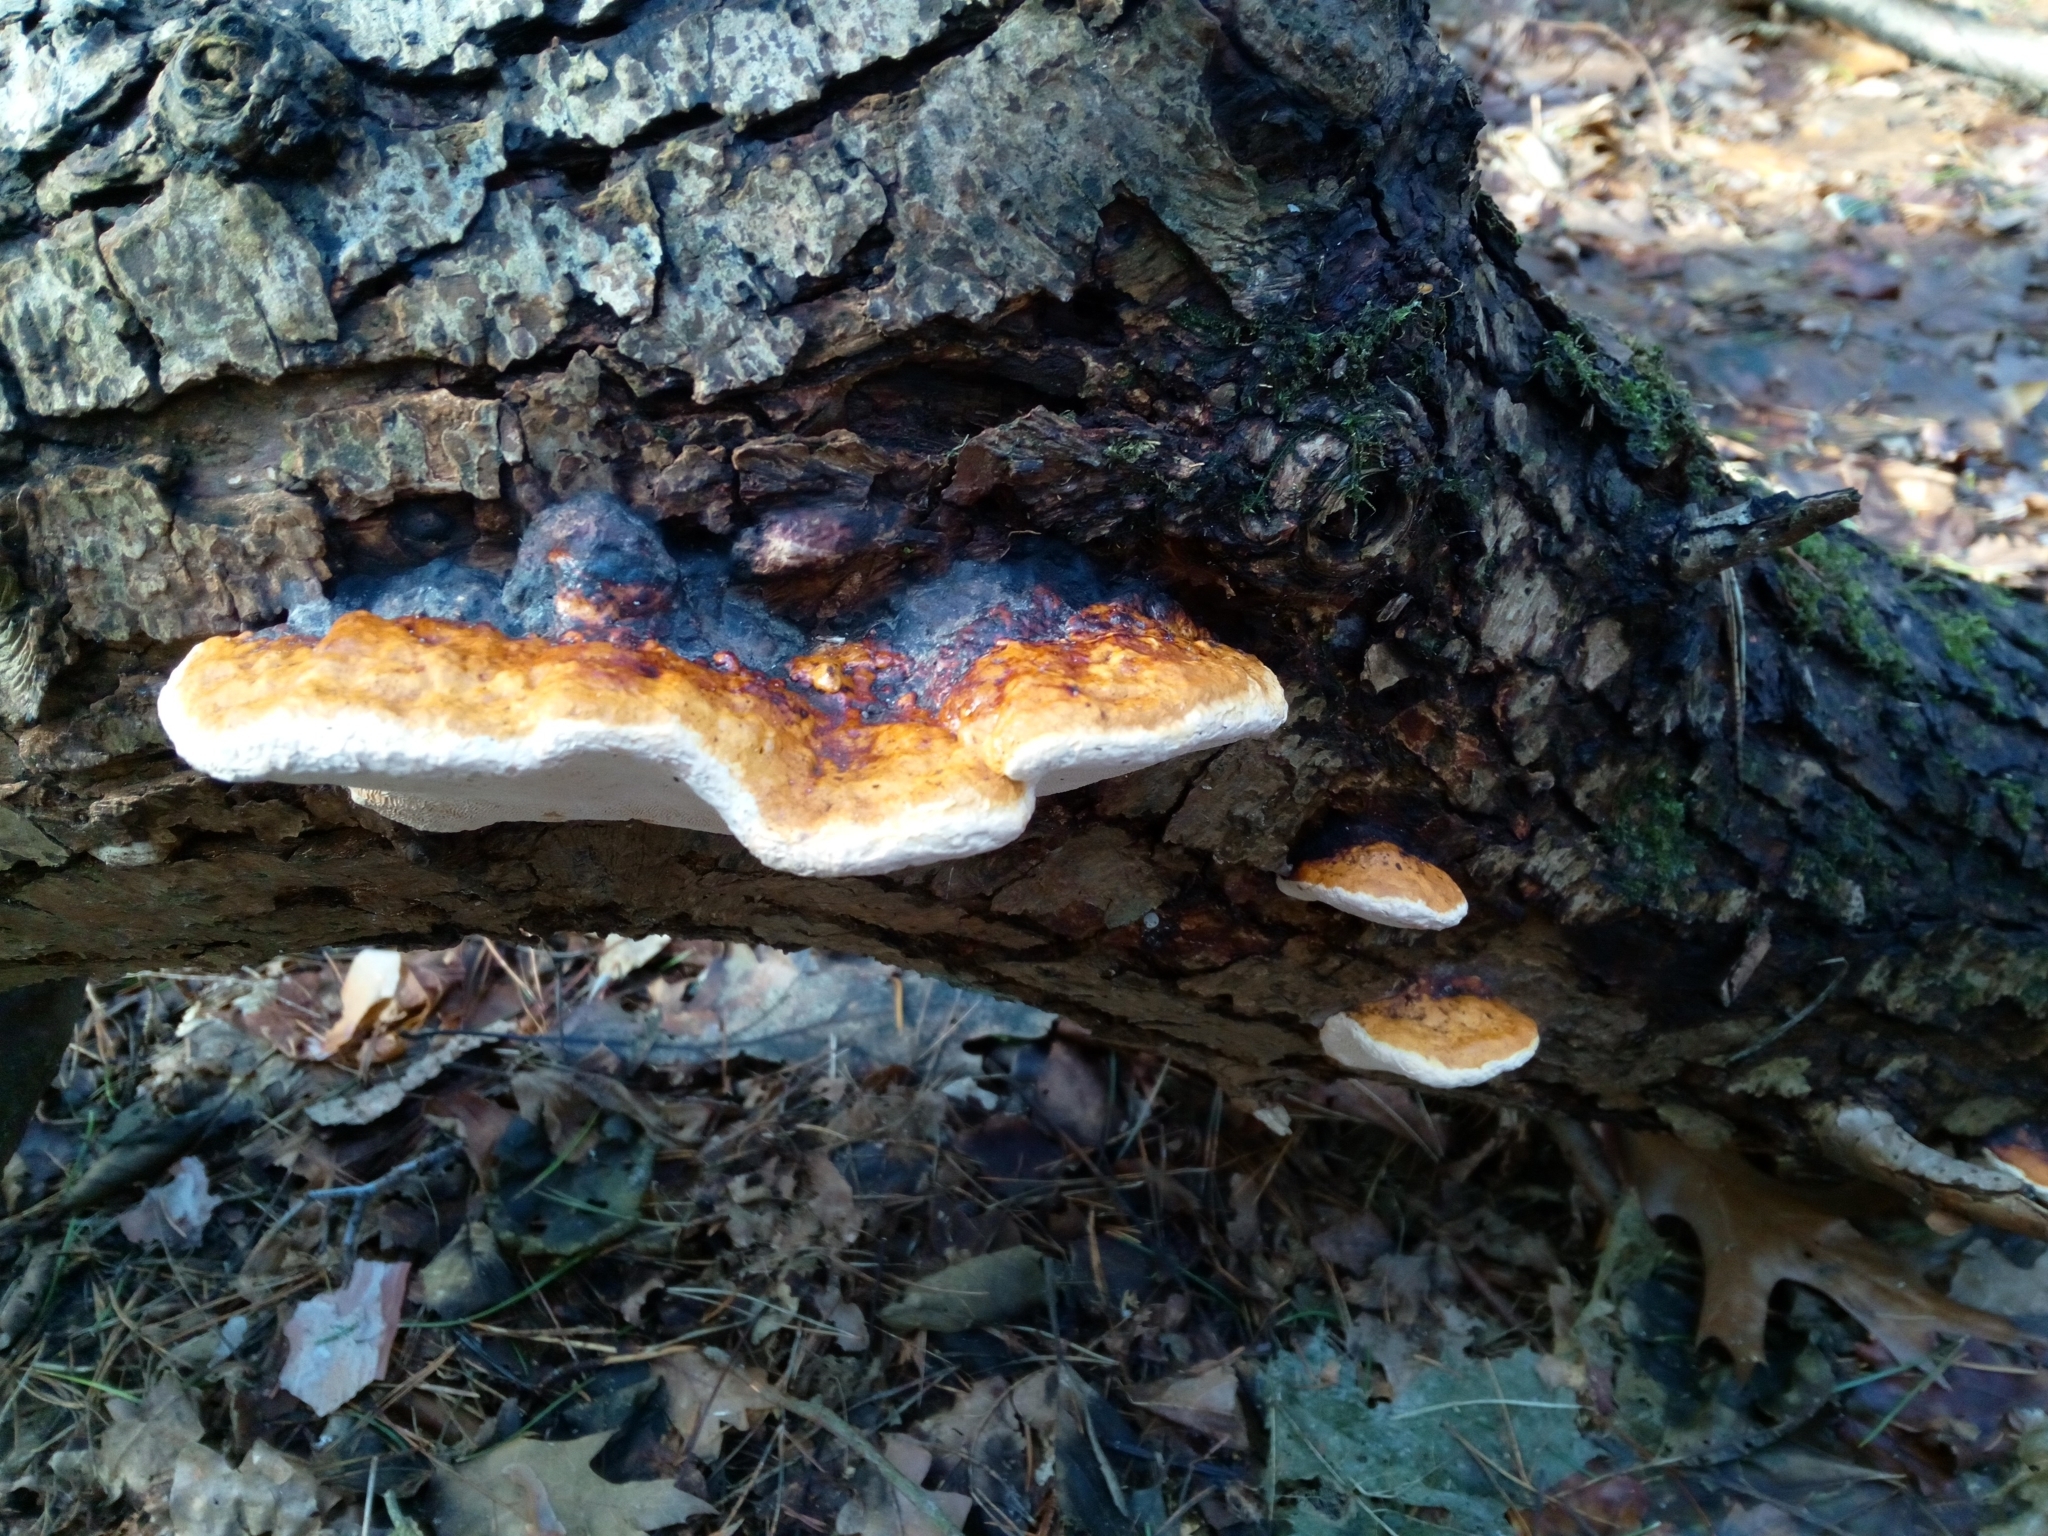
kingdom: Fungi
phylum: Basidiomycota
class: Agaricomycetes
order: Polyporales
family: Fomitopsidaceae
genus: Fomitopsis
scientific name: Fomitopsis pinicola
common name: Red-belted bracket
